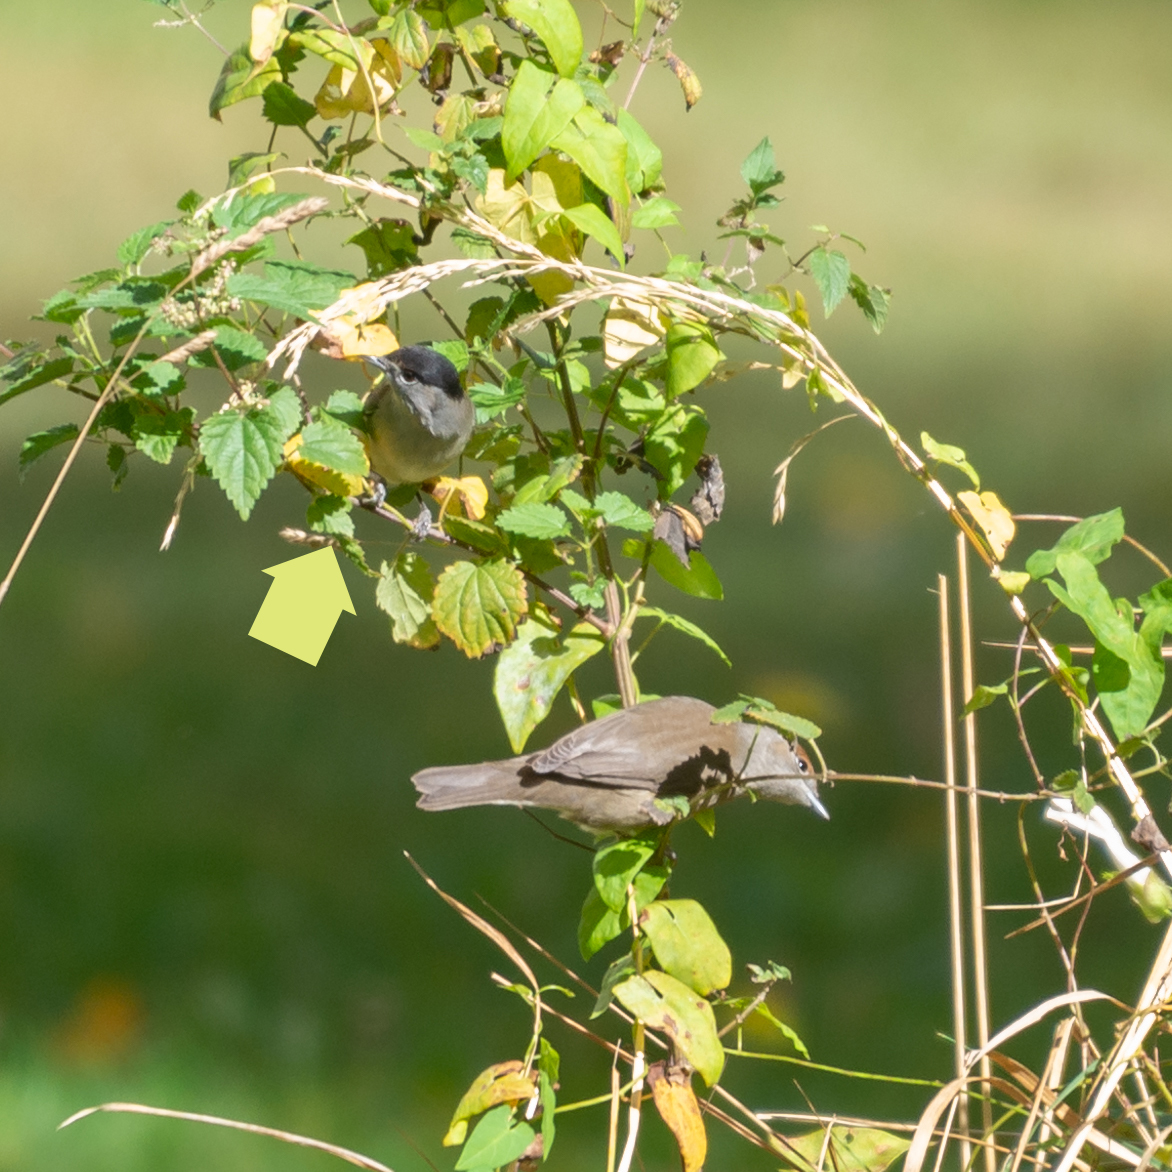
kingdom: Animalia
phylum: Chordata
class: Aves
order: Passeriformes
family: Sylviidae
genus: Sylvia
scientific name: Sylvia atricapilla
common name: Eurasian blackcap
